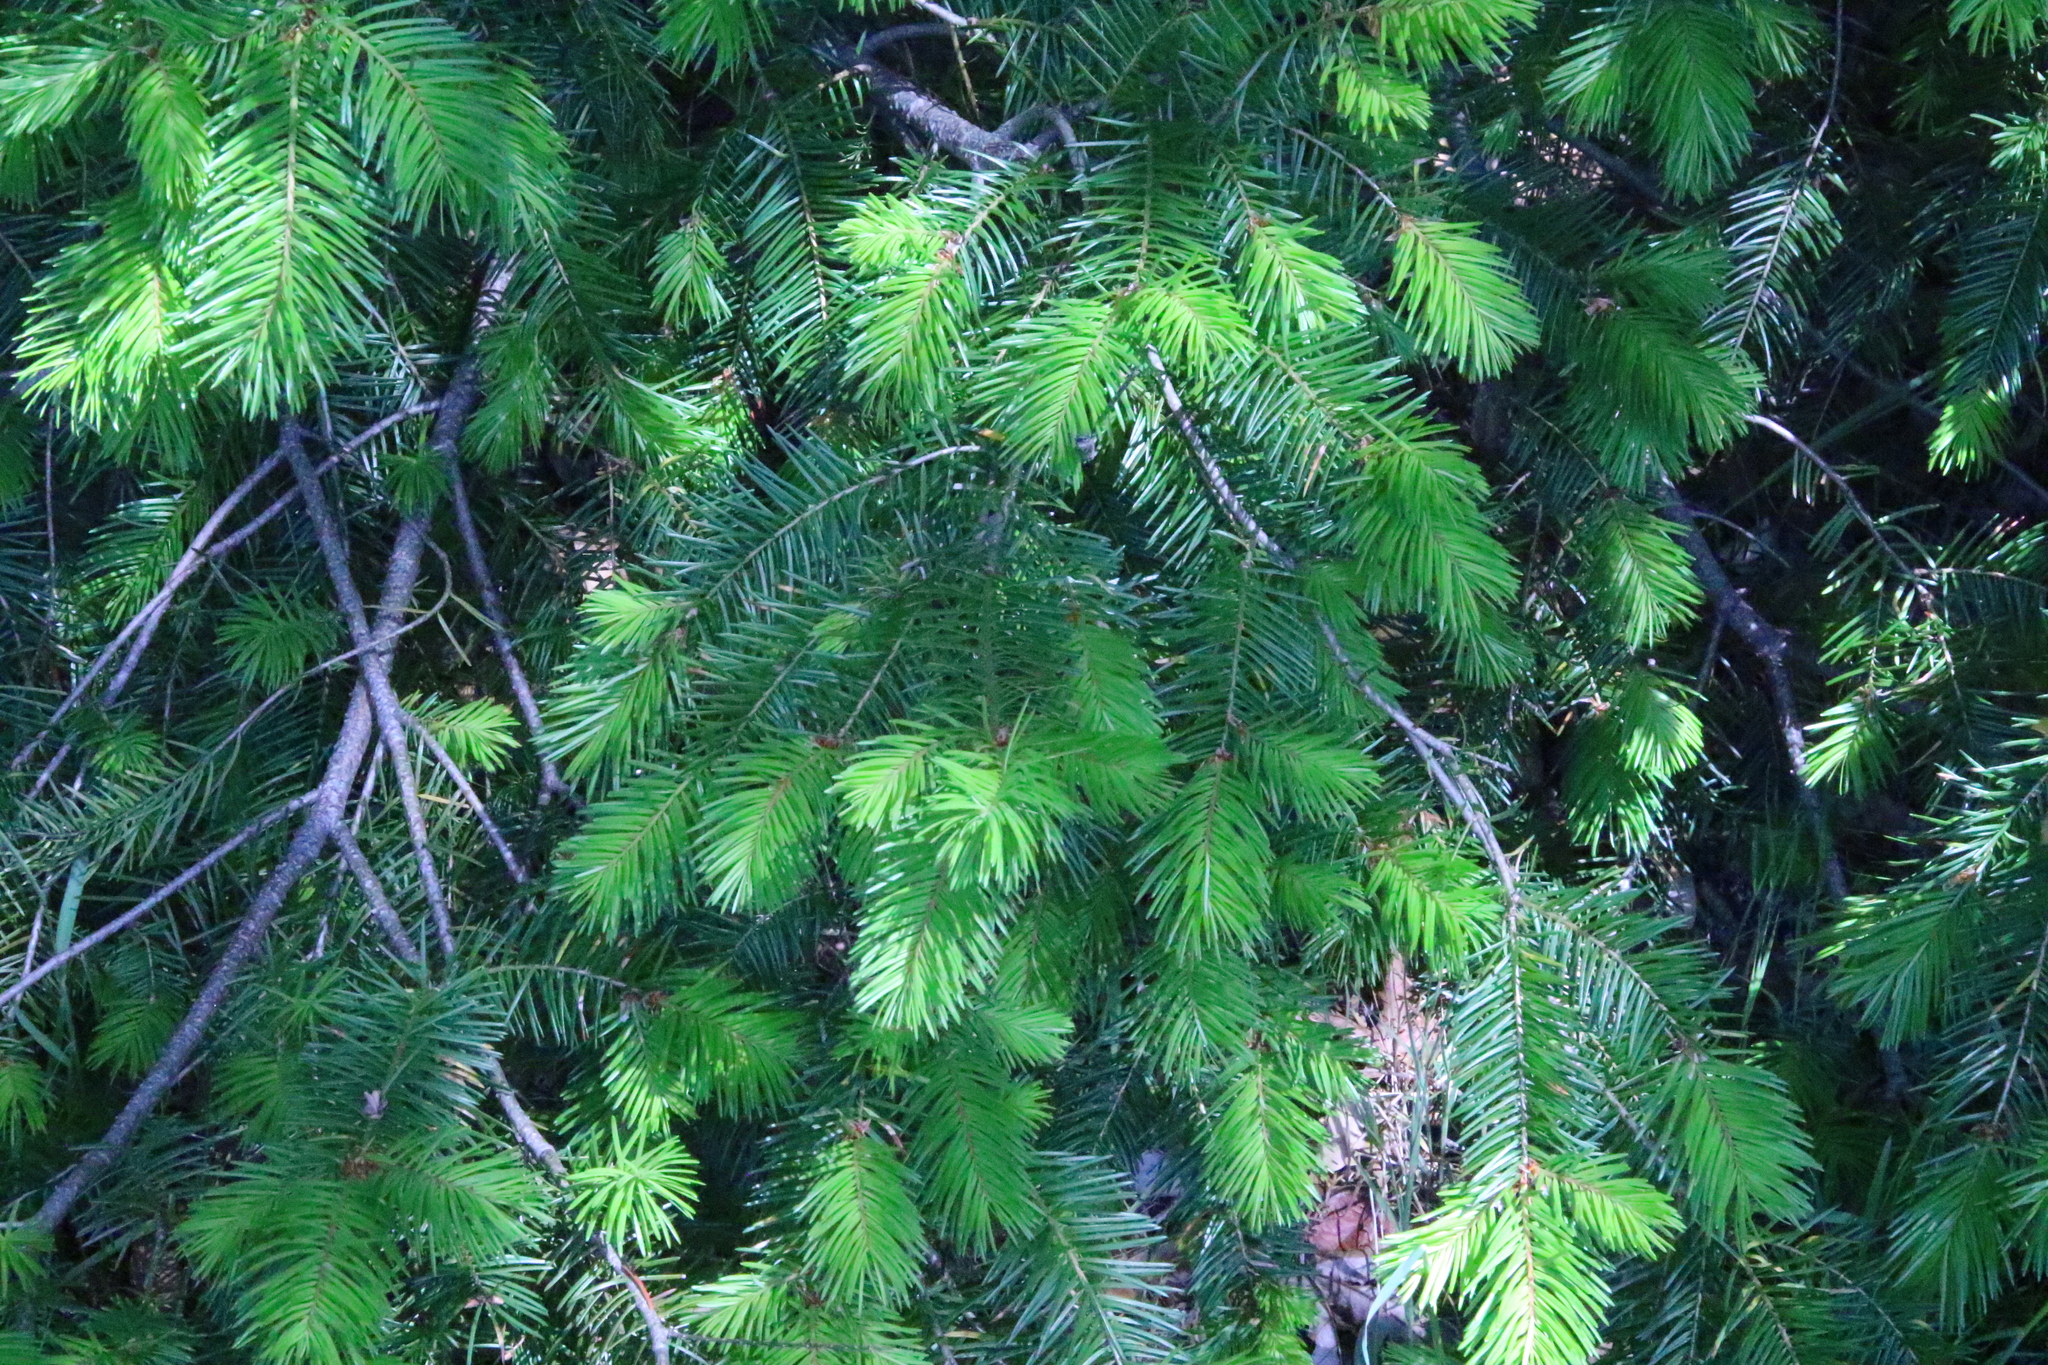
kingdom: Plantae
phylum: Tracheophyta
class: Pinopsida
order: Pinales
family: Pinaceae
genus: Pseudotsuga
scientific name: Pseudotsuga menziesii
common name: Douglas fir
